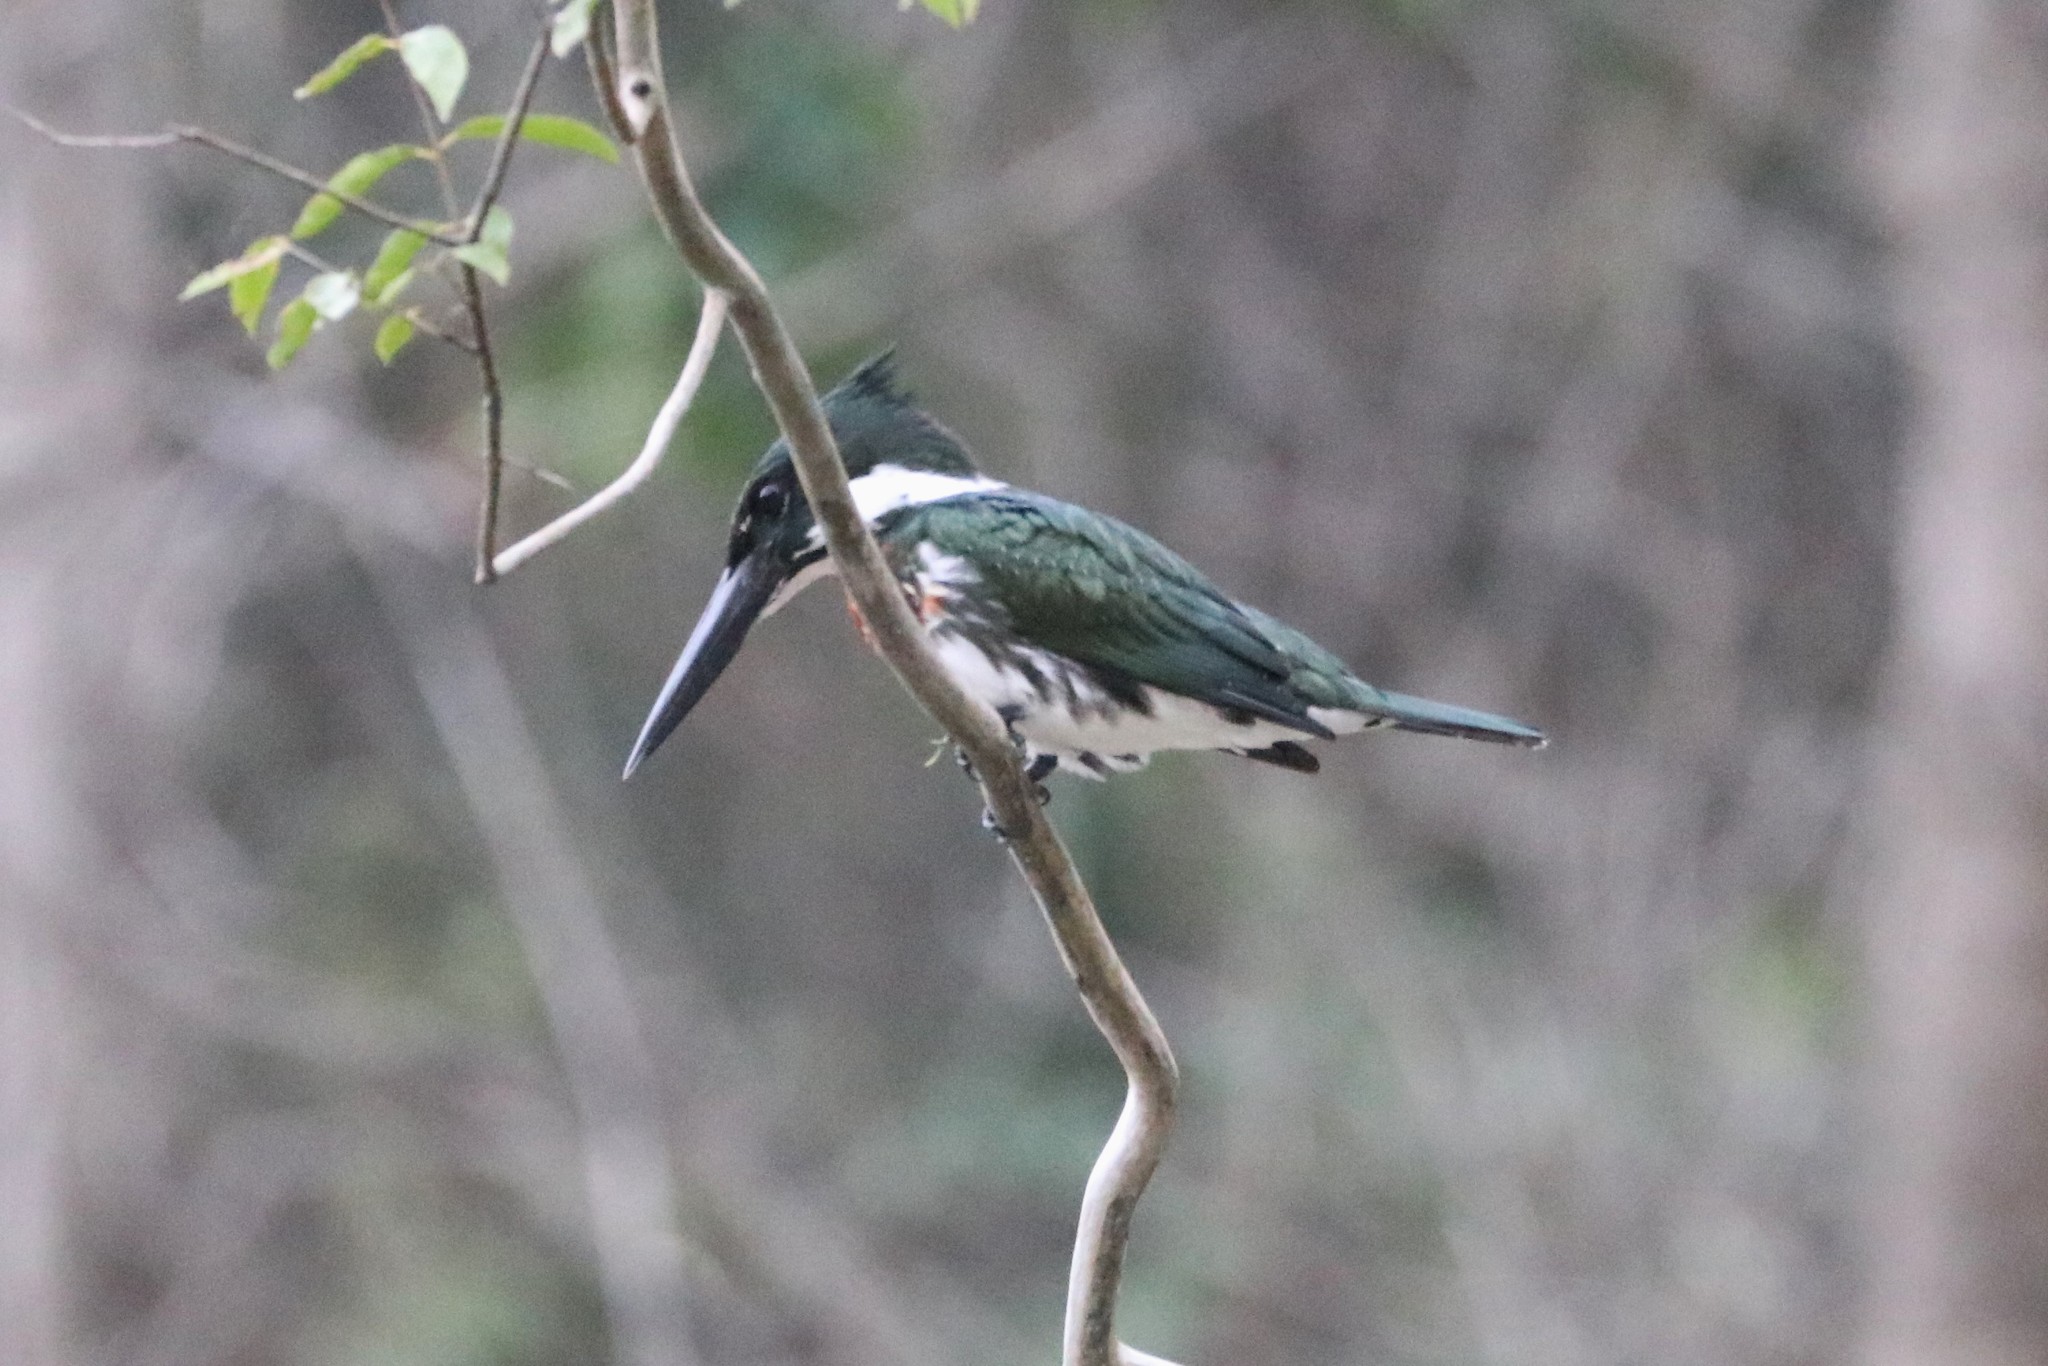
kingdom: Animalia
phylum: Chordata
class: Aves
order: Coraciiformes
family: Alcedinidae
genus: Chloroceryle
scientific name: Chloroceryle amazona
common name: Amazon kingfisher
